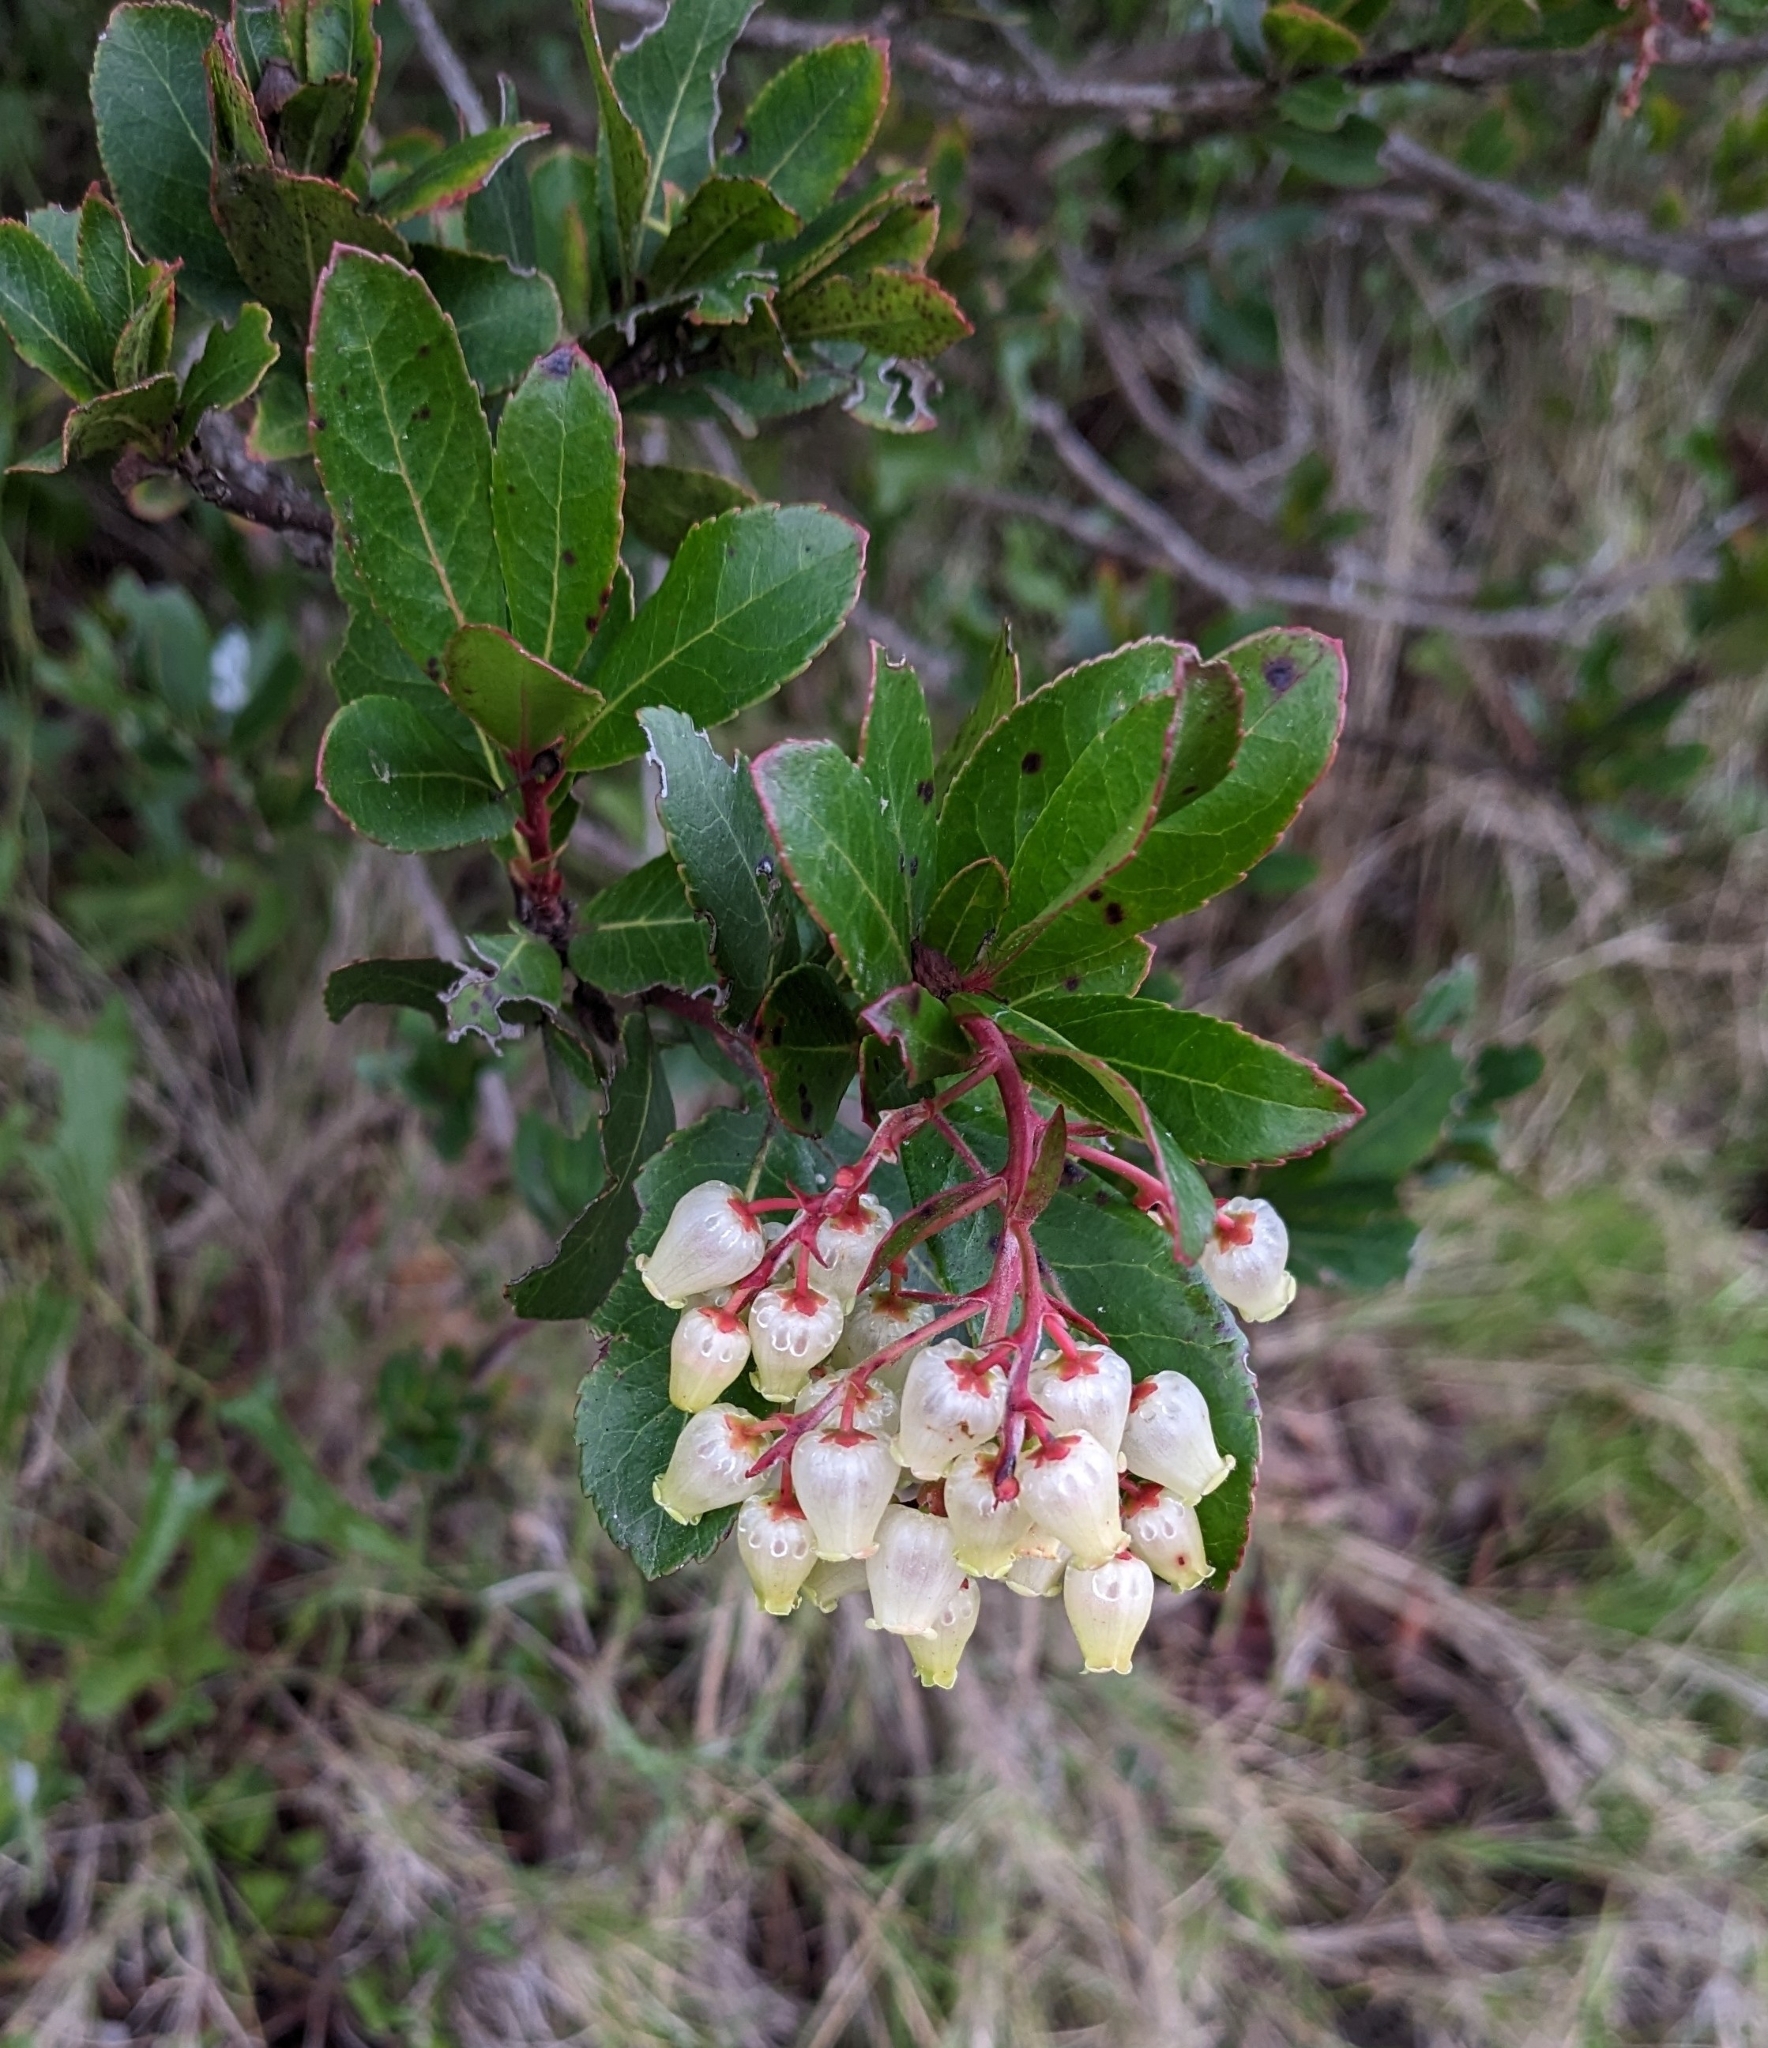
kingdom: Plantae
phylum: Tracheophyta
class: Magnoliopsida
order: Ericales
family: Ericaceae
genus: Arbutus
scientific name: Arbutus unedo
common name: Strawberry-tree
